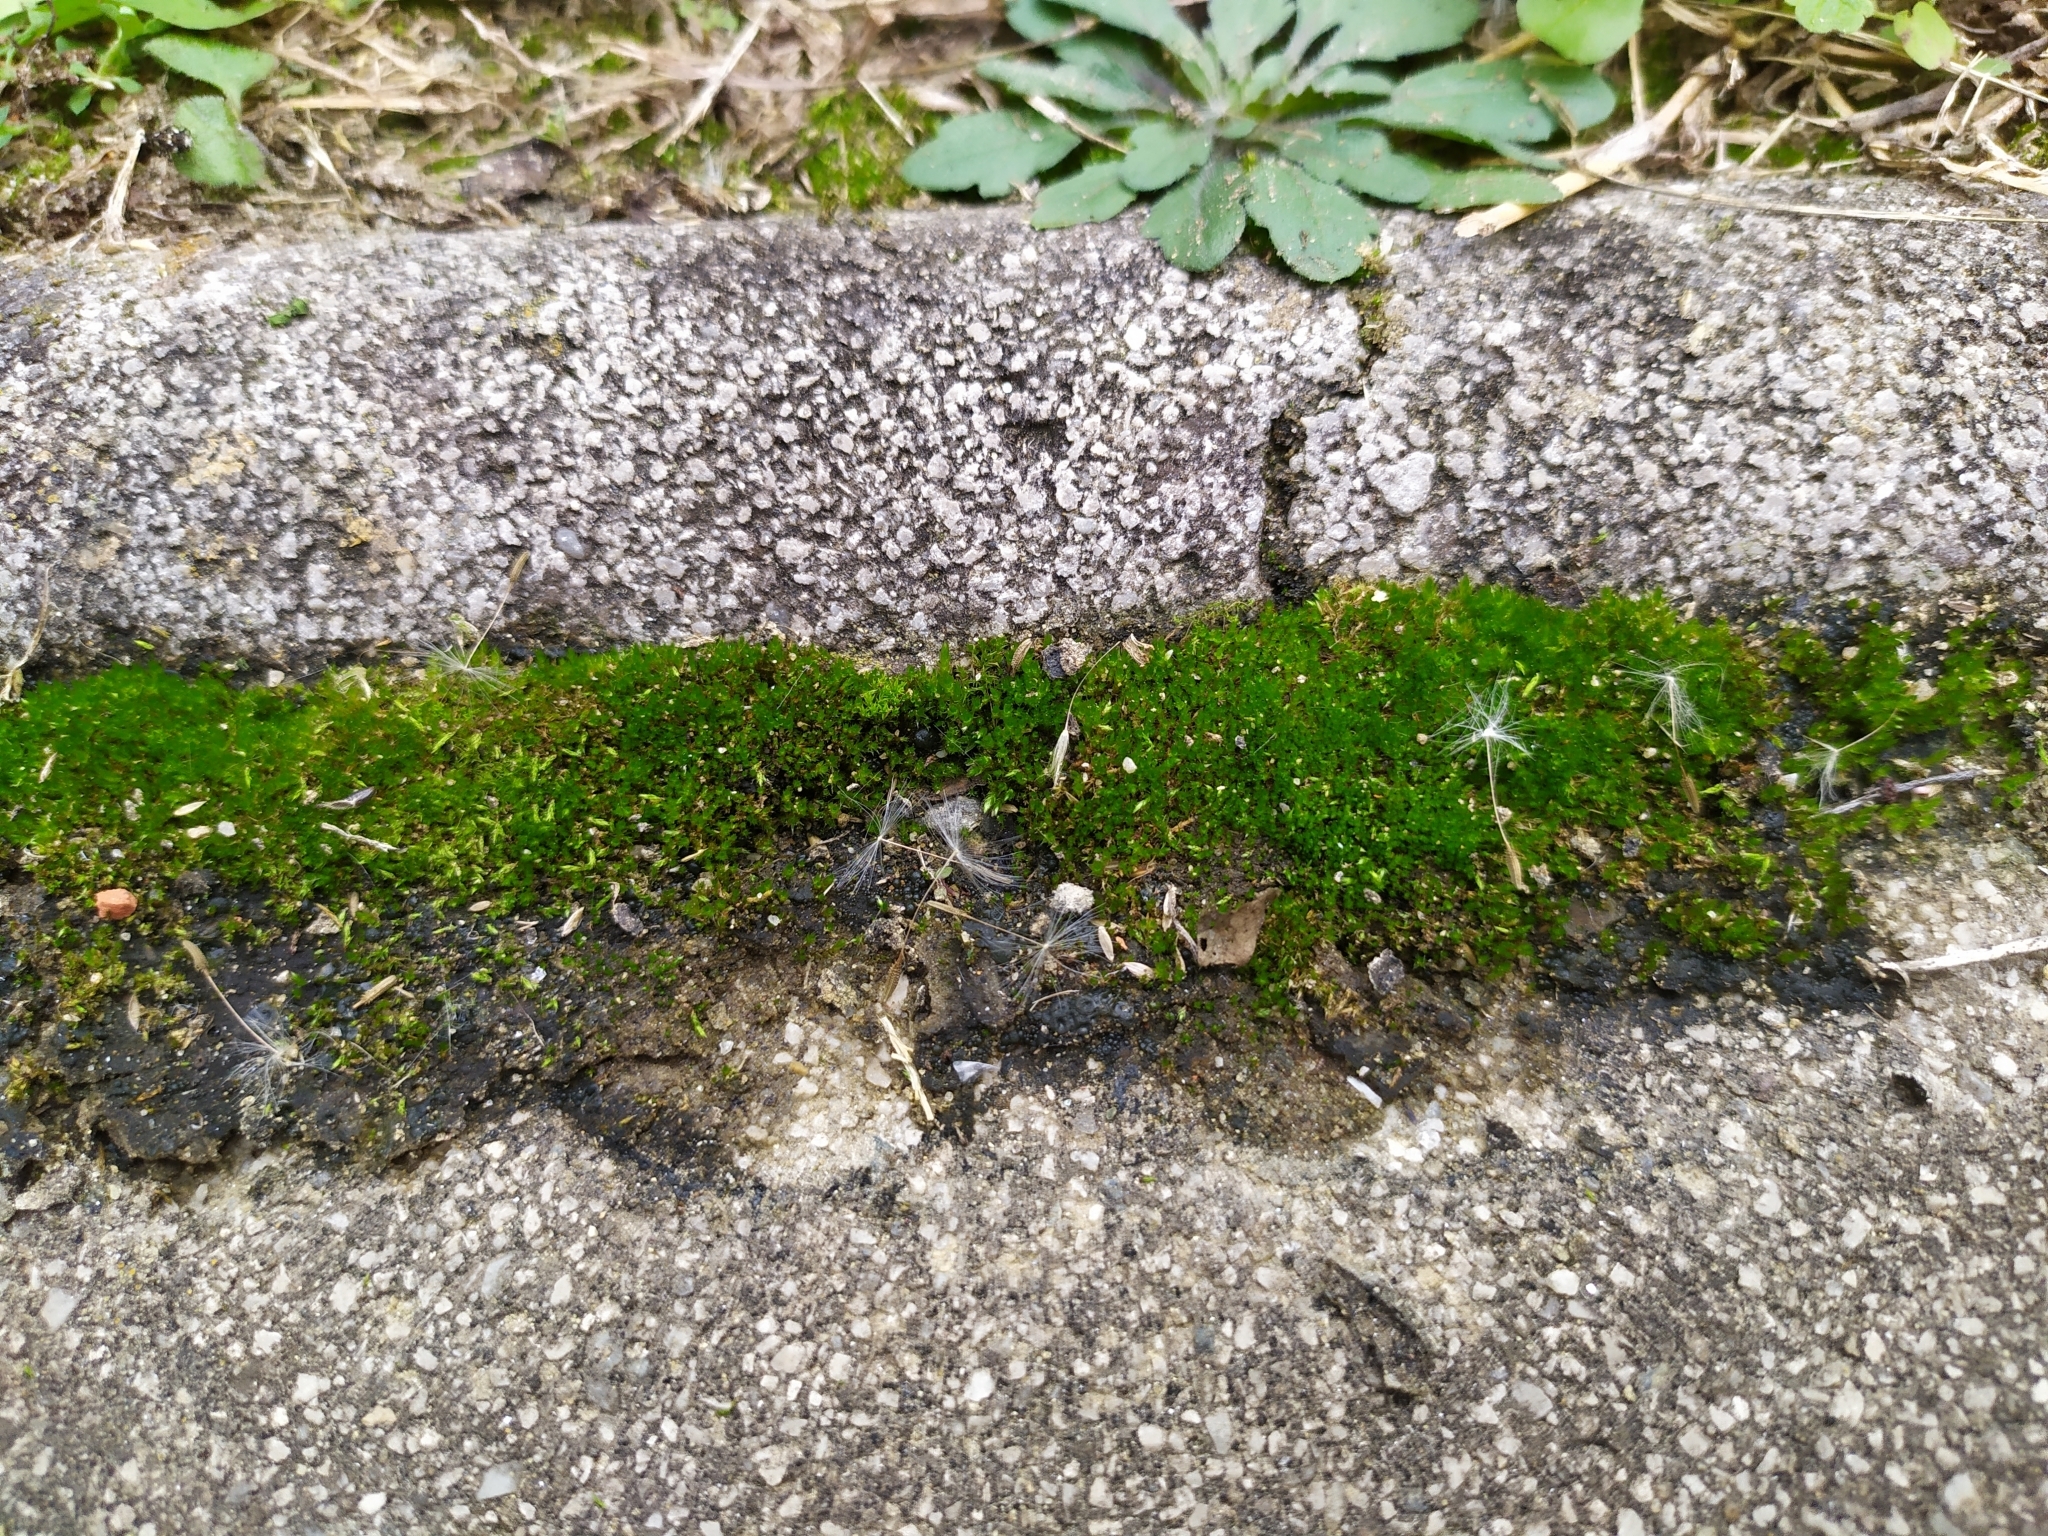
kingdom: Bacteria
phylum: Cyanobacteria
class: Cyanobacteriia
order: Cyanobacteriales
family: Nostocaceae
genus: Nostoc
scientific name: Nostoc commune
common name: Star jelly
